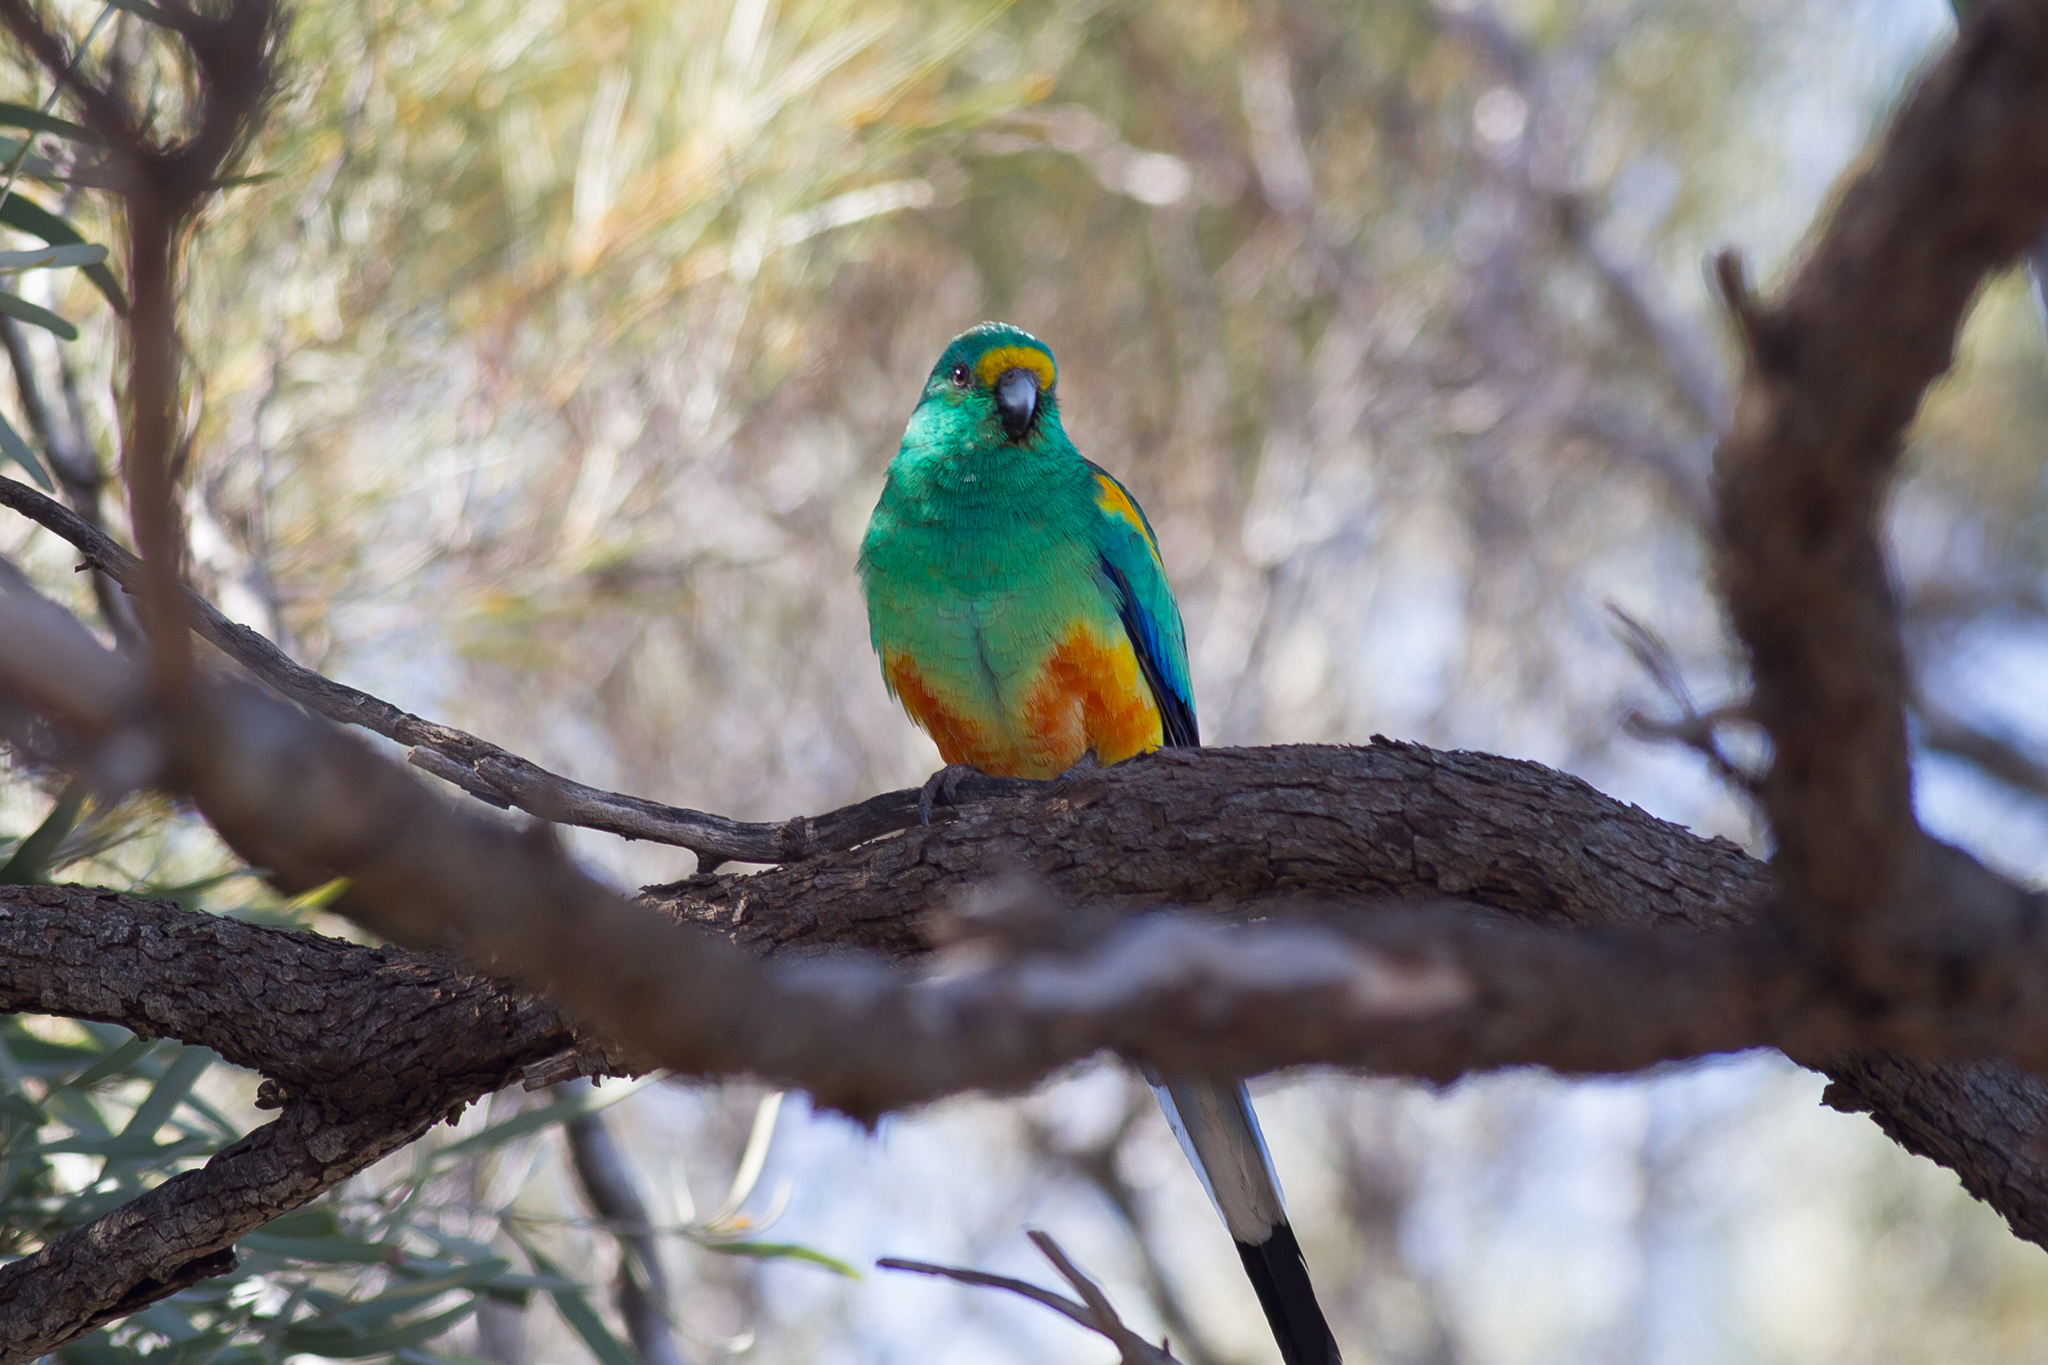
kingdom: Animalia
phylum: Chordata
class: Aves
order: Psittaciformes
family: Psittaculidae
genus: Psephotellus
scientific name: Psephotellus varius
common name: Mulga parrot
